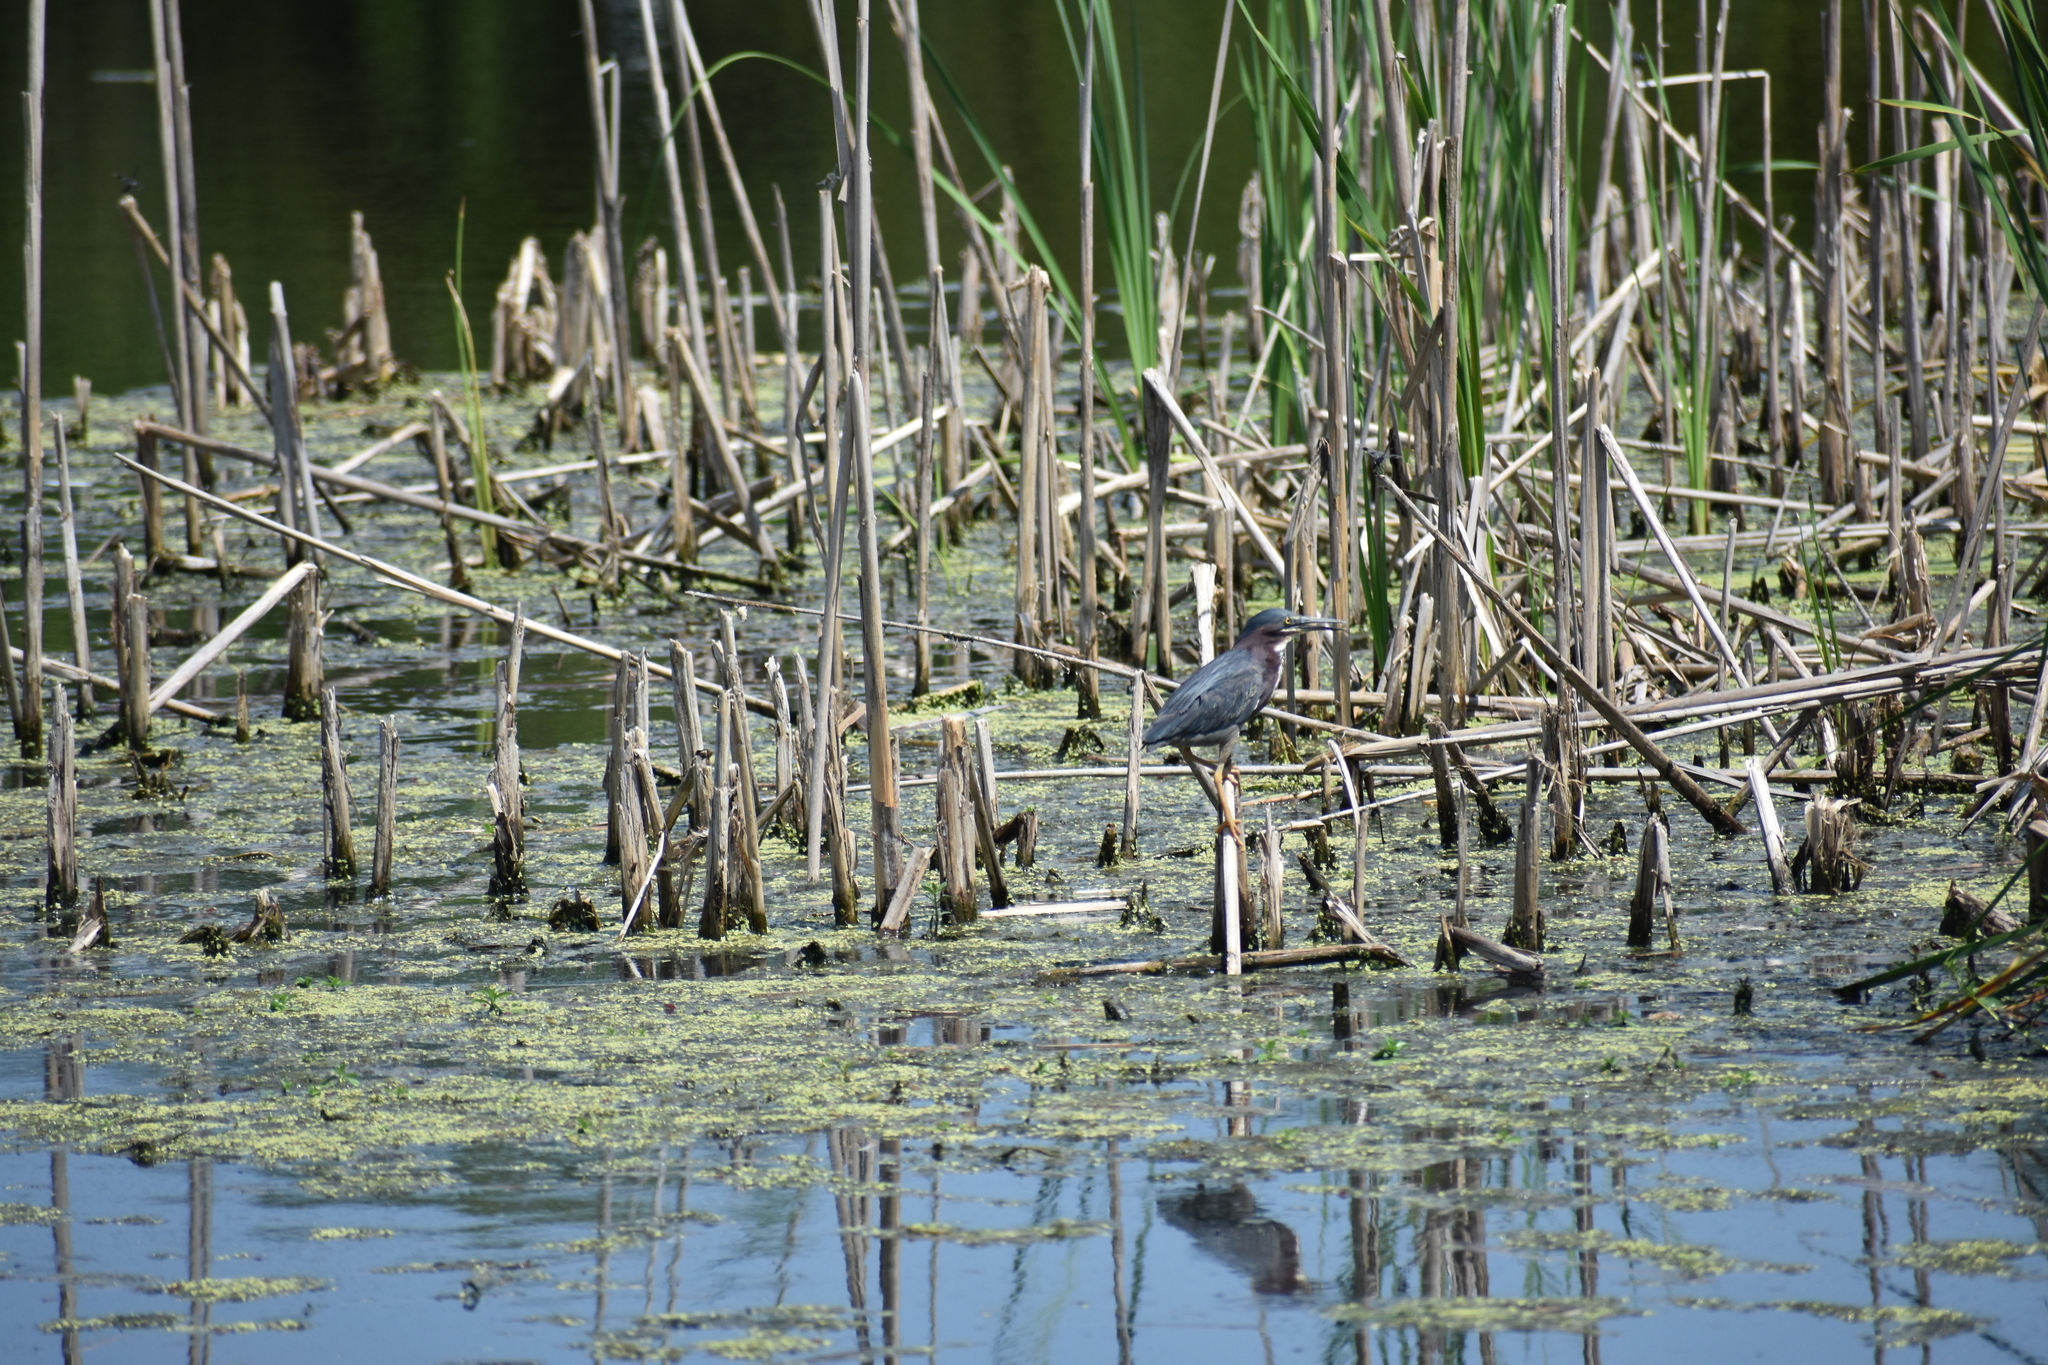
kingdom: Animalia
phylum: Chordata
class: Aves
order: Pelecaniformes
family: Ardeidae
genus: Butorides
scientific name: Butorides virescens
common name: Green heron
